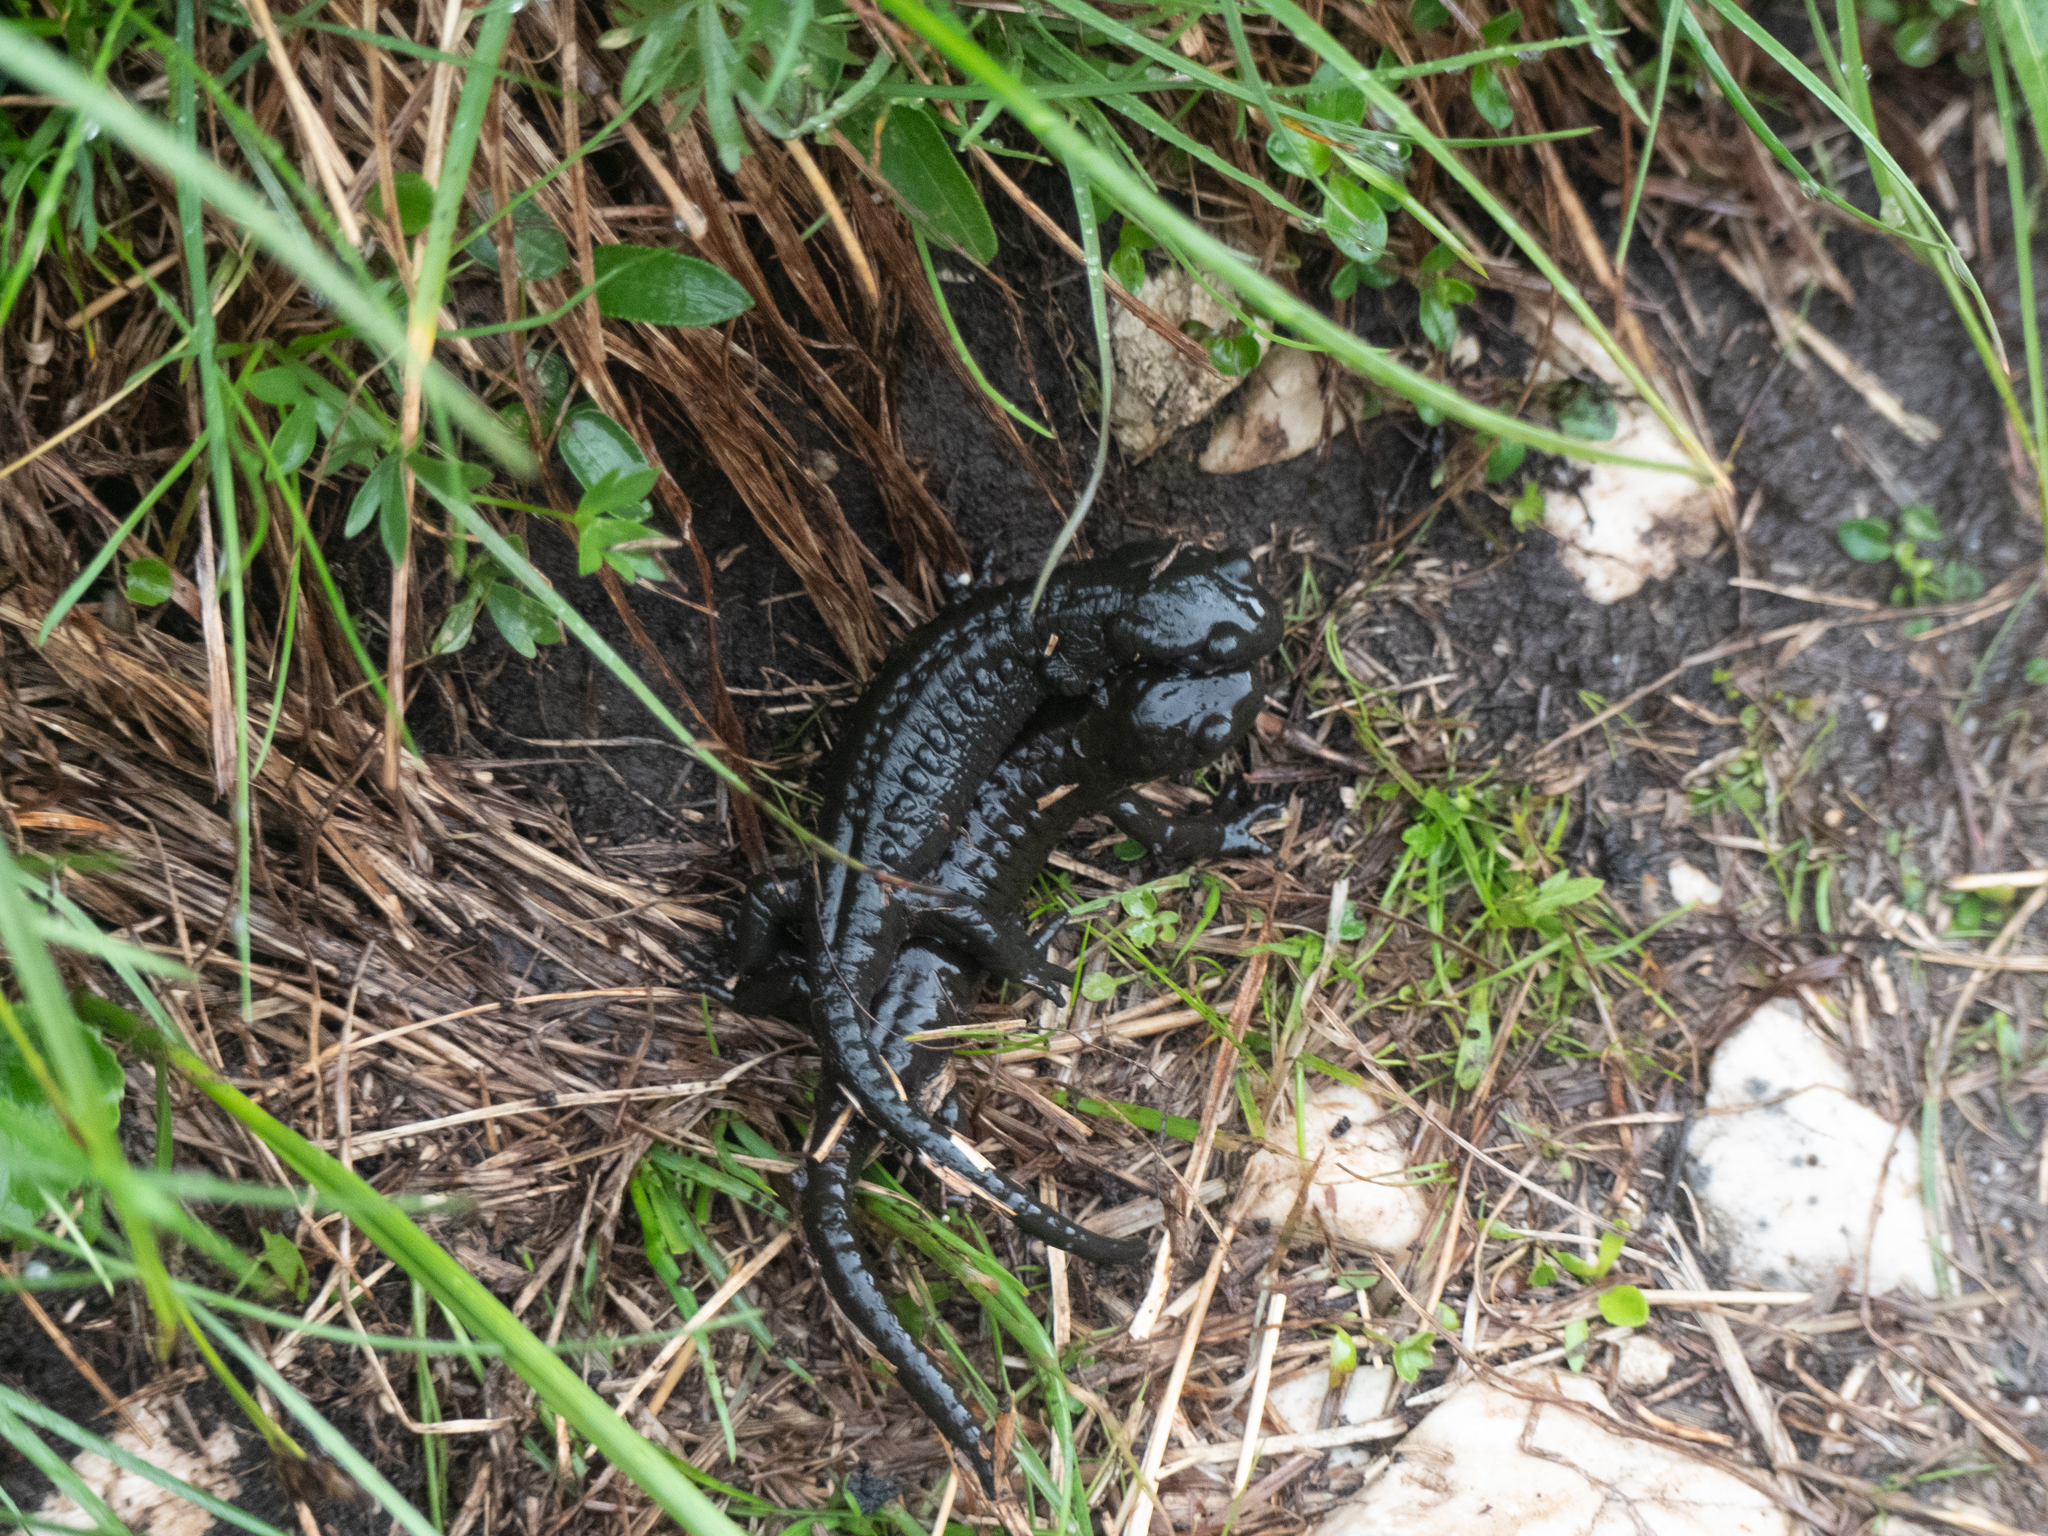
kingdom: Animalia
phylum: Chordata
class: Amphibia
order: Caudata
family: Salamandridae
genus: Salamandra
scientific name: Salamandra atra
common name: Alpine salamander
